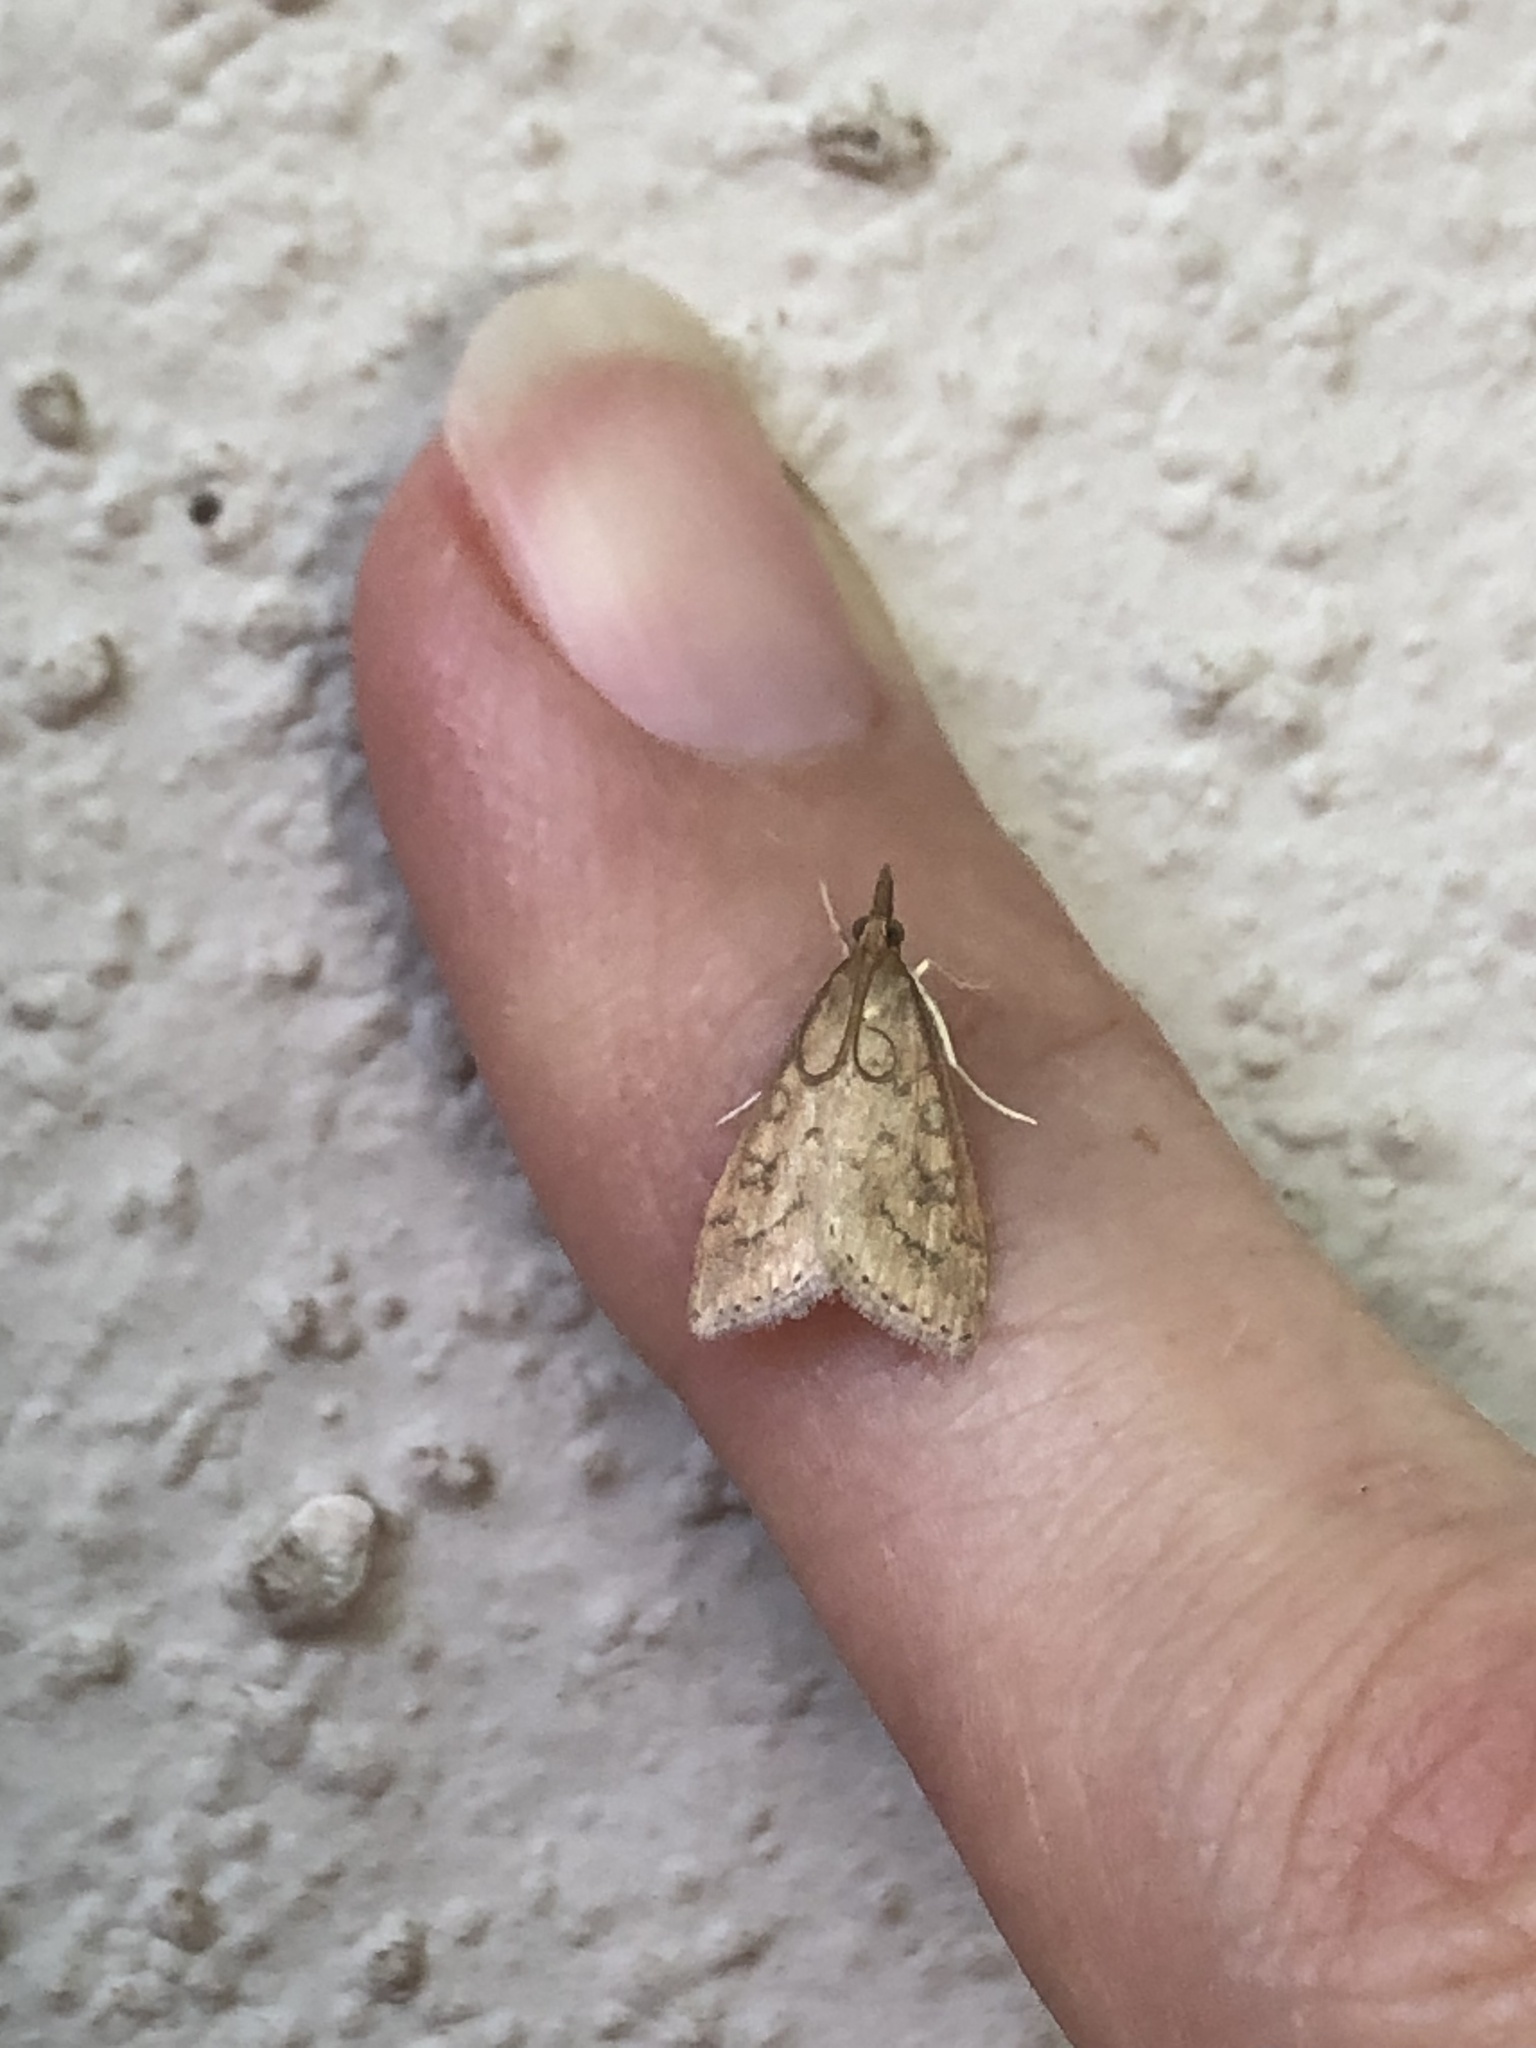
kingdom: Animalia
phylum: Arthropoda
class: Insecta
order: Lepidoptera
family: Crambidae
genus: Udea
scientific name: Udea rubigalis
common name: Celery leaftier moth
